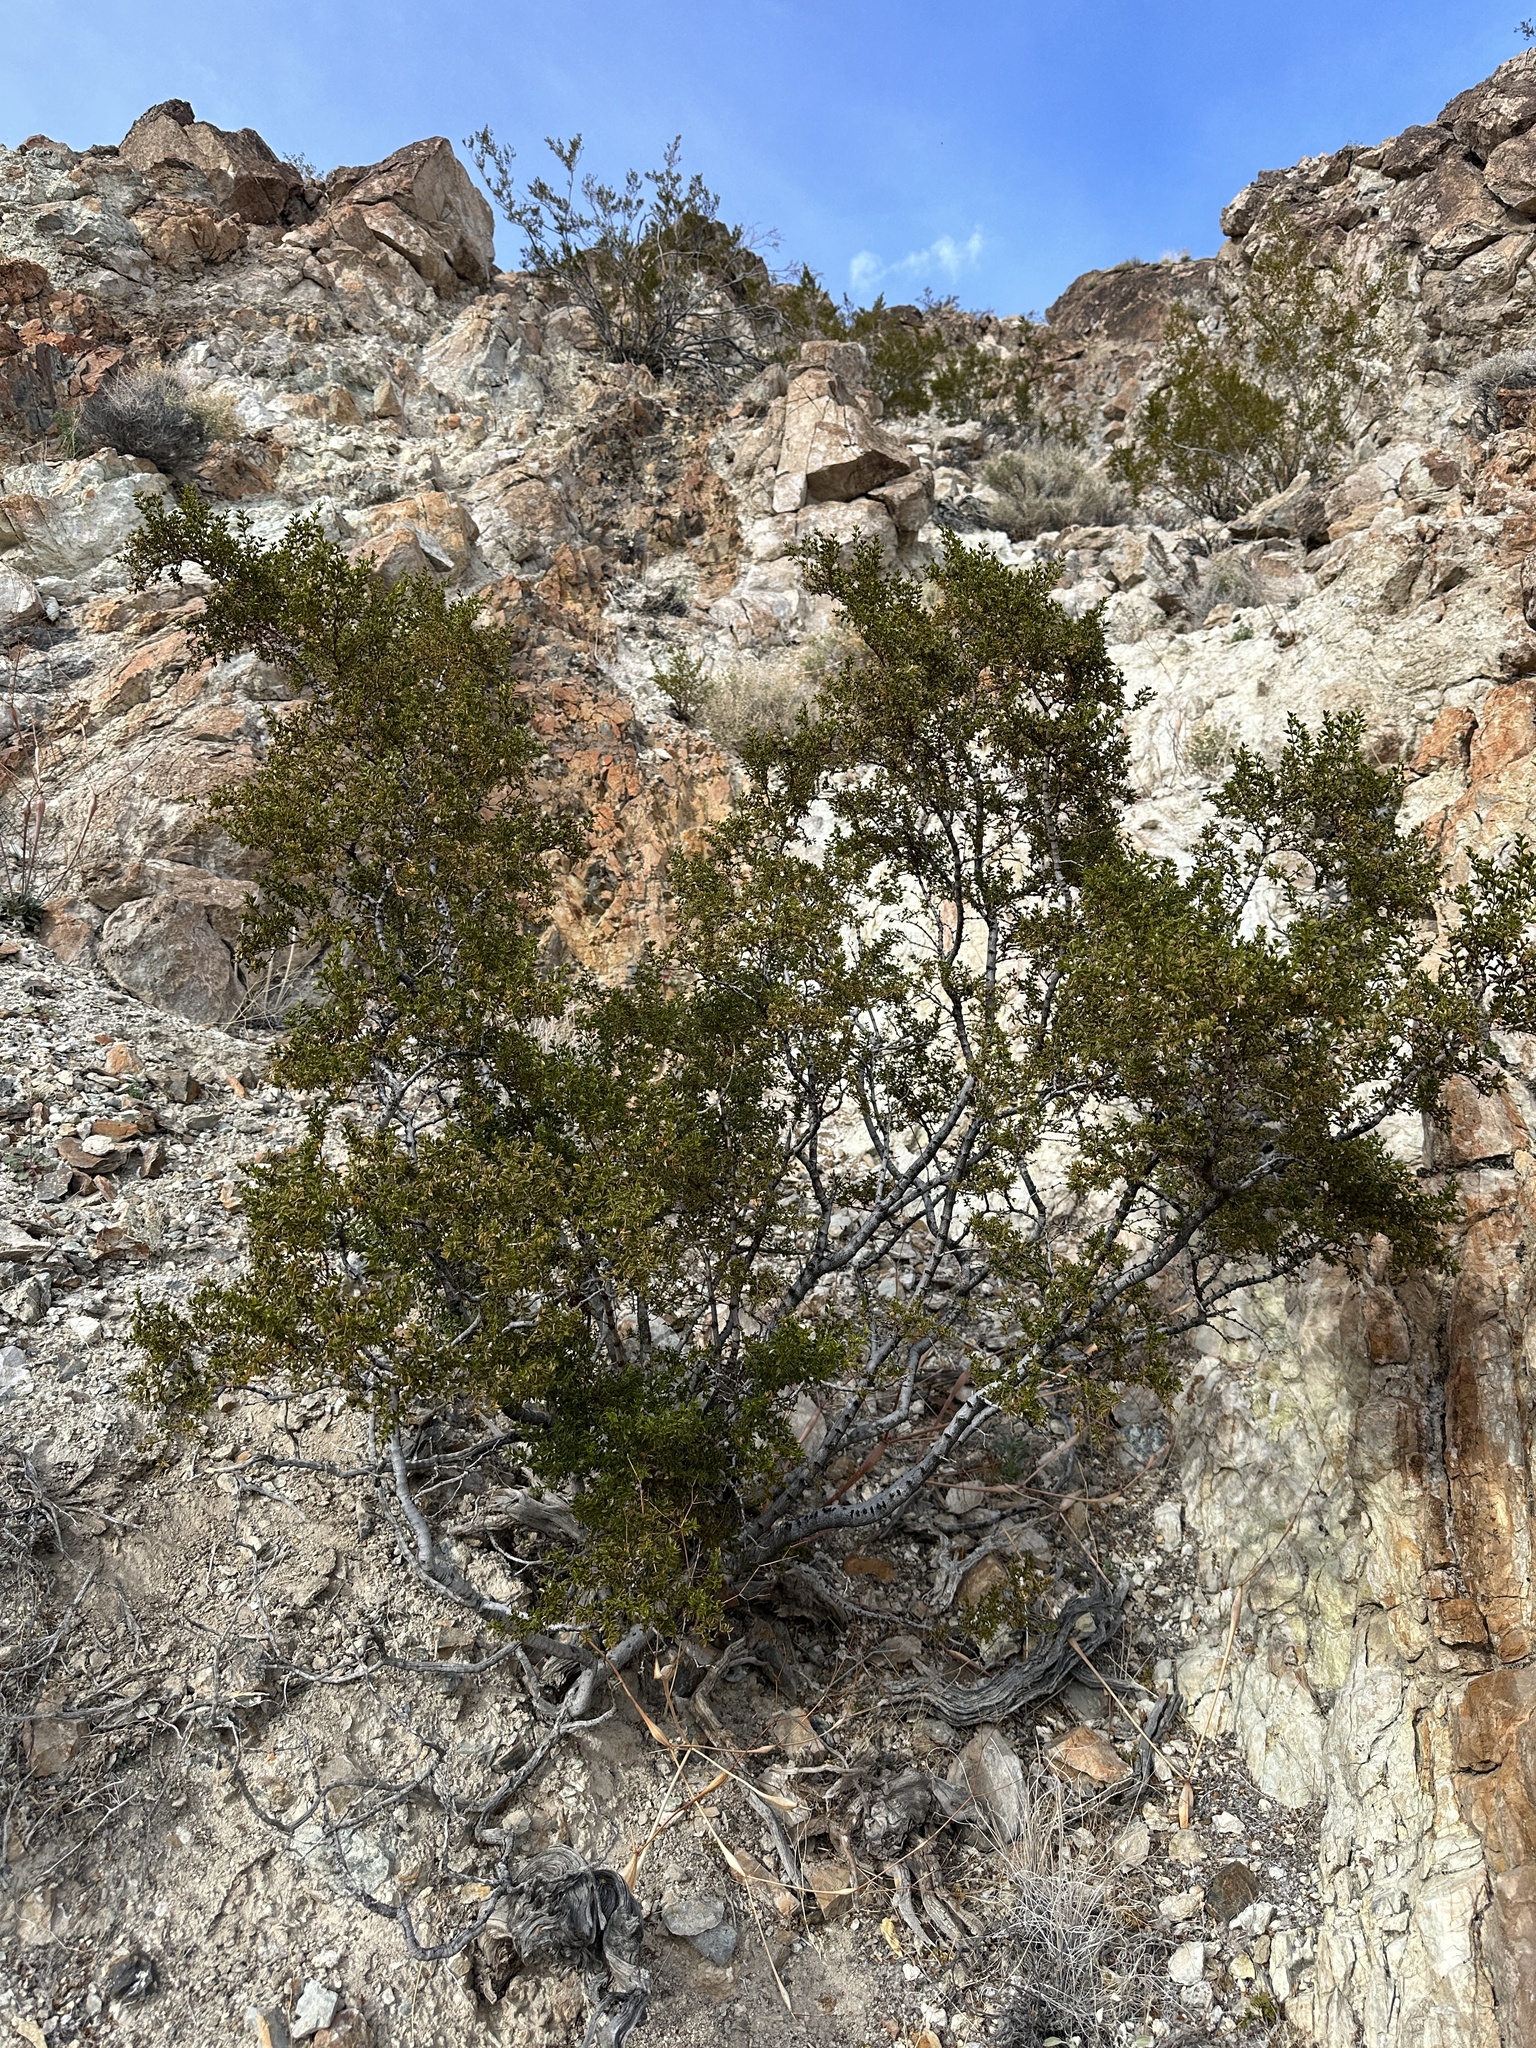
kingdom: Plantae
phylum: Tracheophyta
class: Magnoliopsida
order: Zygophyllales
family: Zygophyllaceae
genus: Larrea
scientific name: Larrea tridentata
